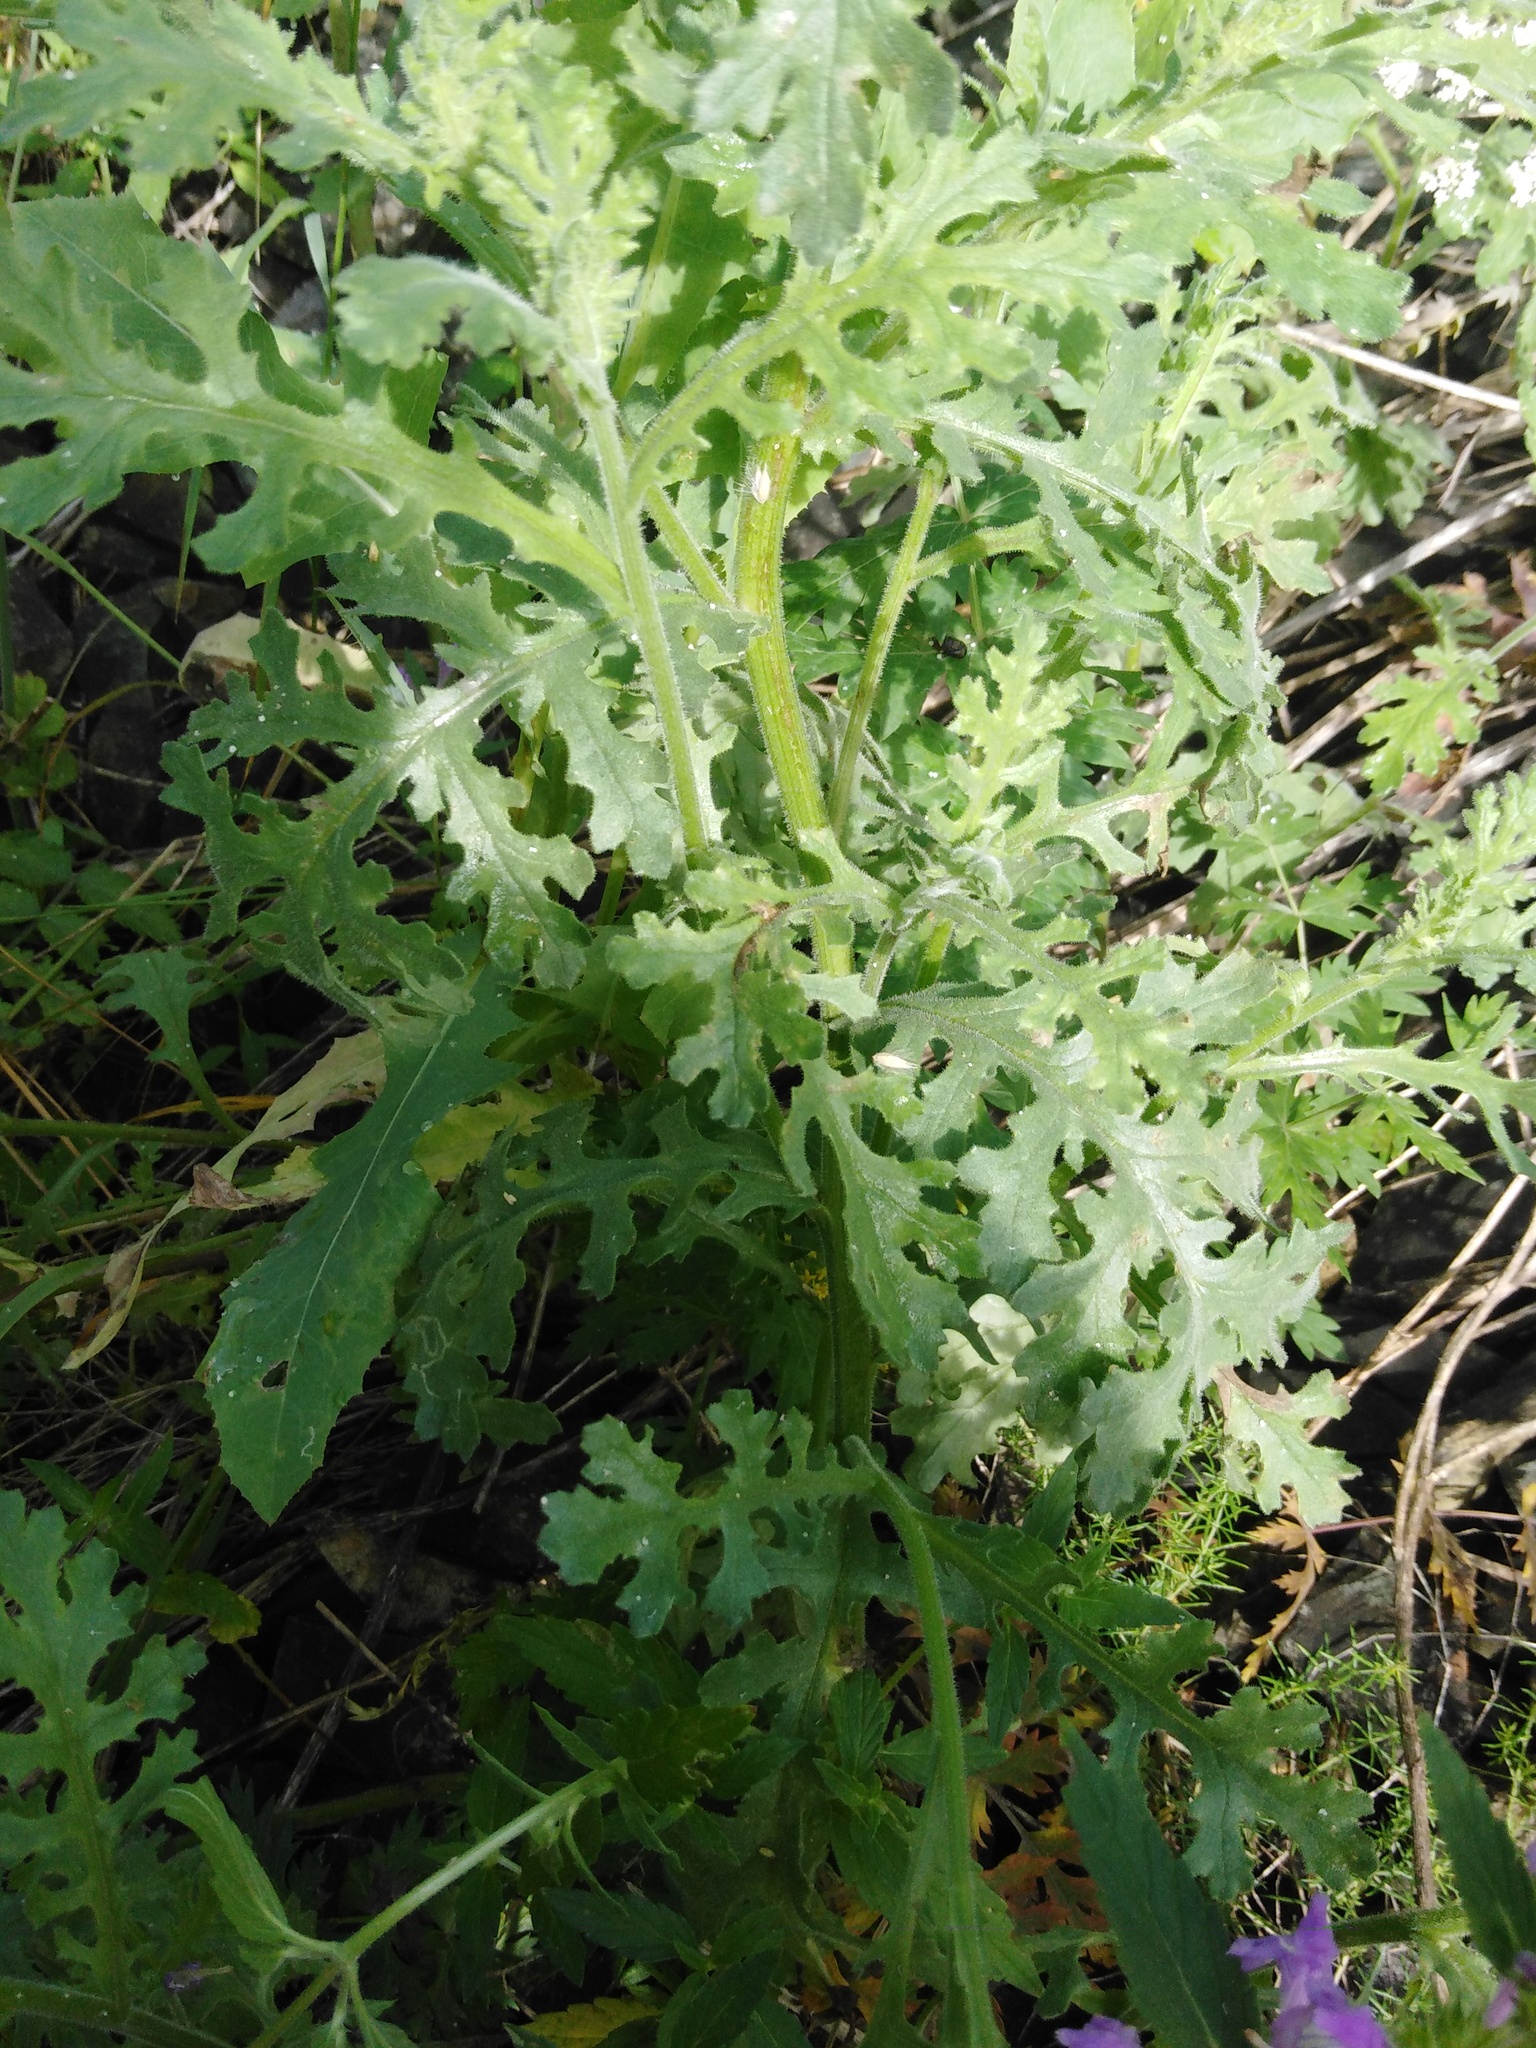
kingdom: Plantae
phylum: Tracheophyta
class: Magnoliopsida
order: Asterales
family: Asteraceae
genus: Senecio
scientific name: Senecio viscosus
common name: Sticky groundsel
